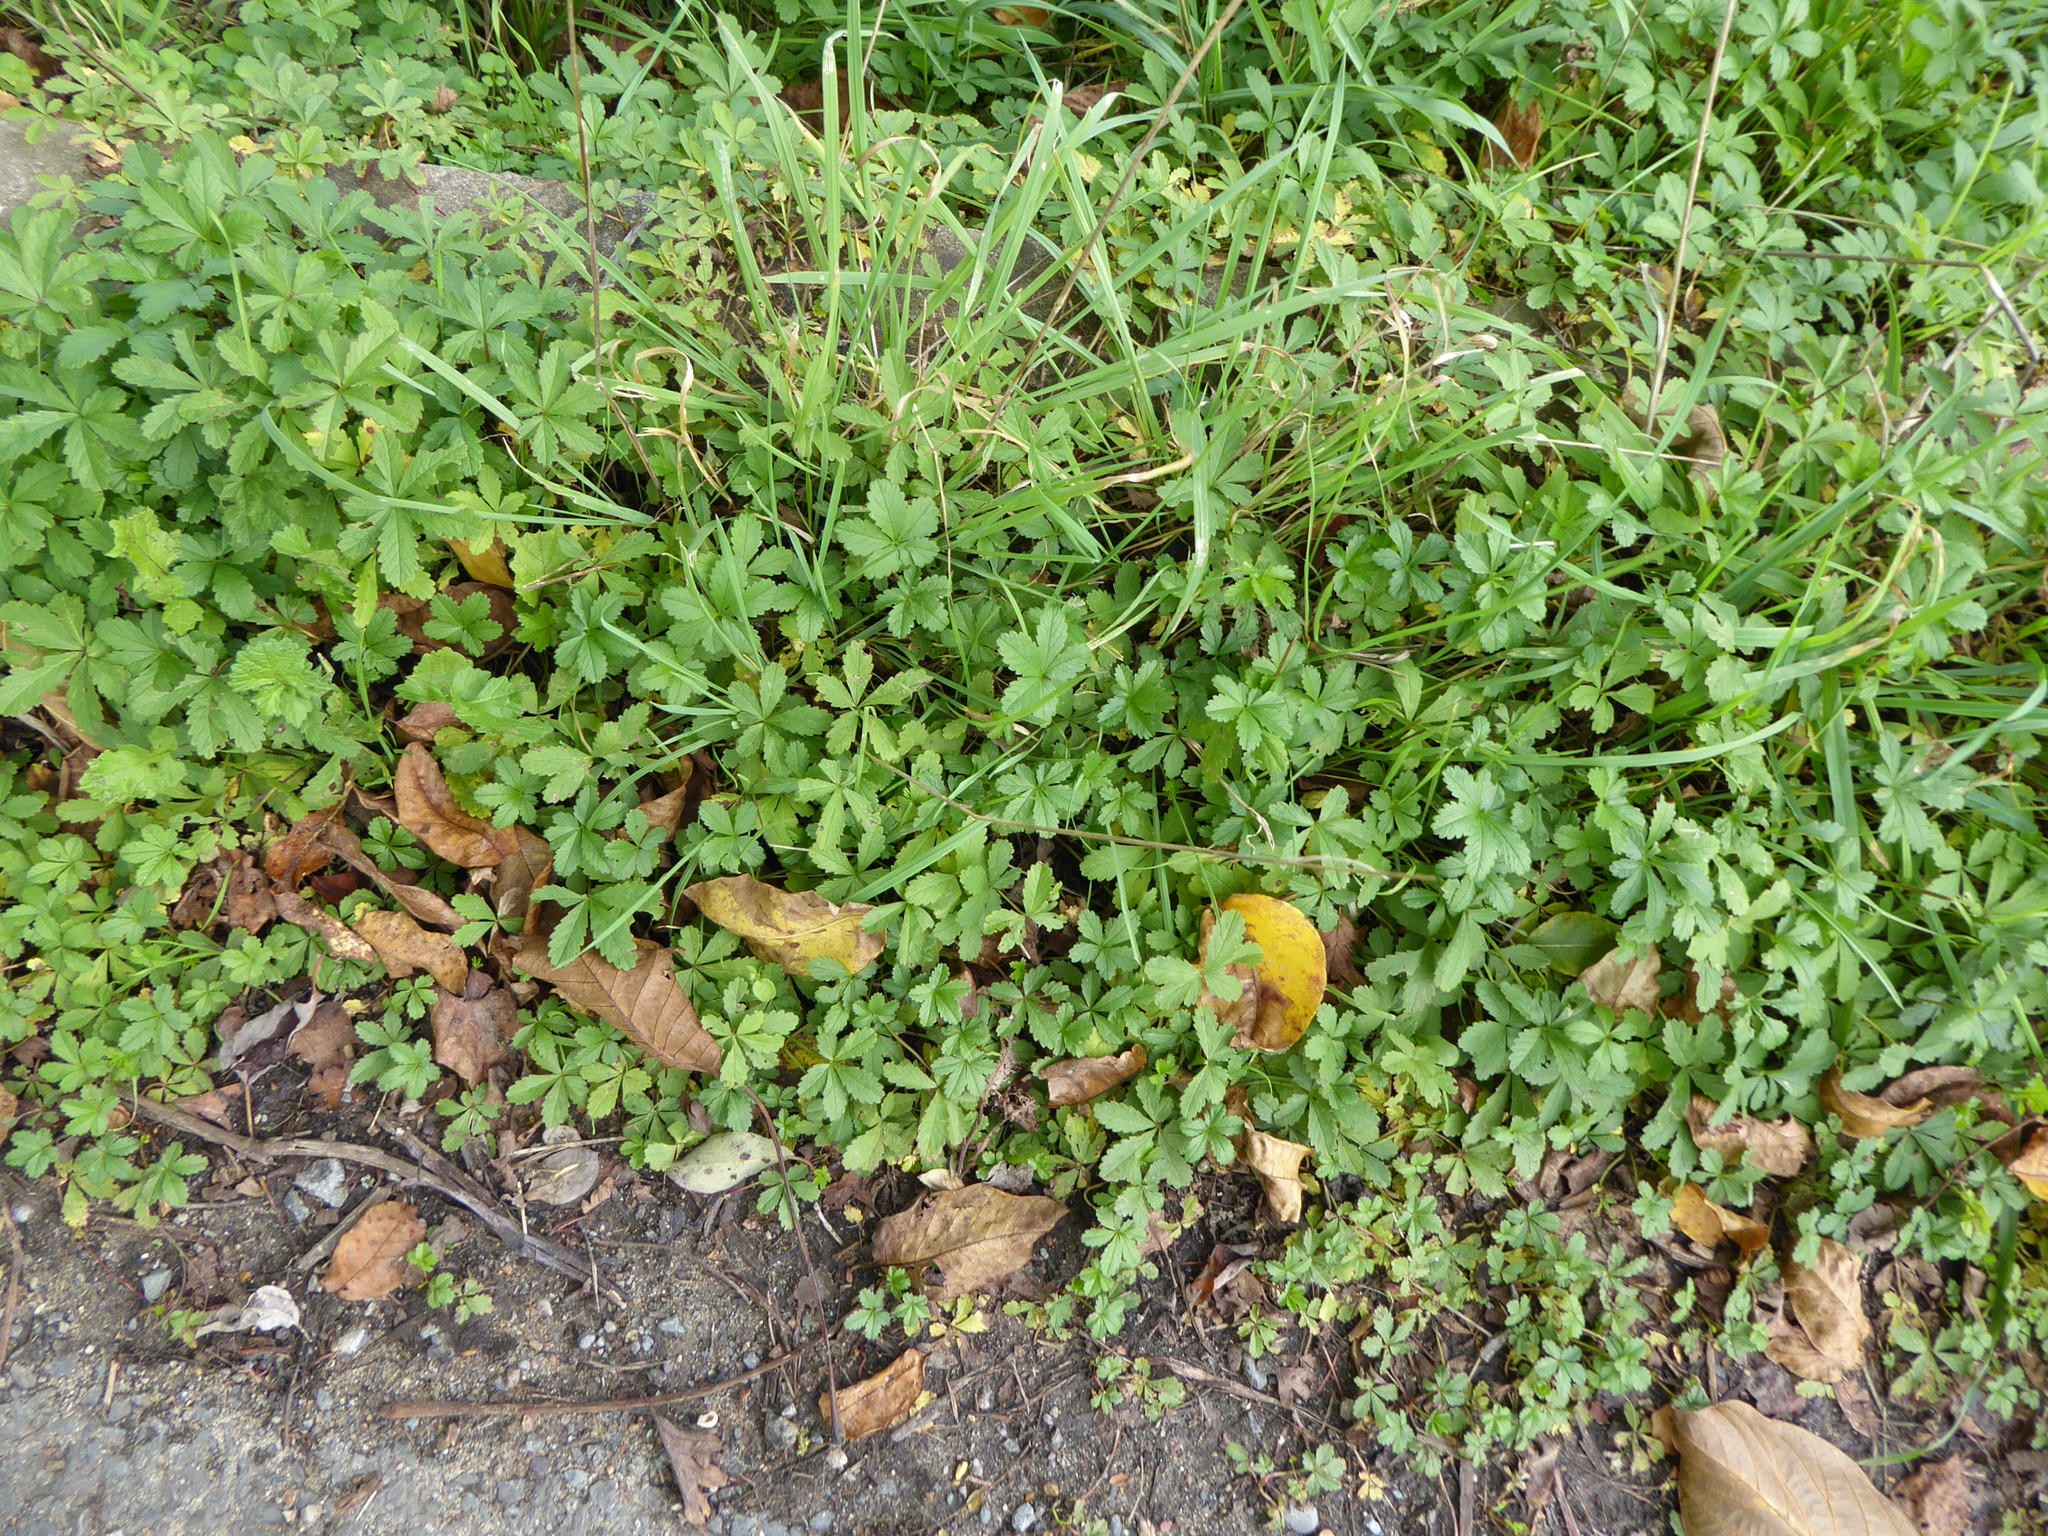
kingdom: Plantae
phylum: Tracheophyta
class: Magnoliopsida
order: Rosales
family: Rosaceae
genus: Potentilla
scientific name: Potentilla reptans
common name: Creeping cinquefoil
